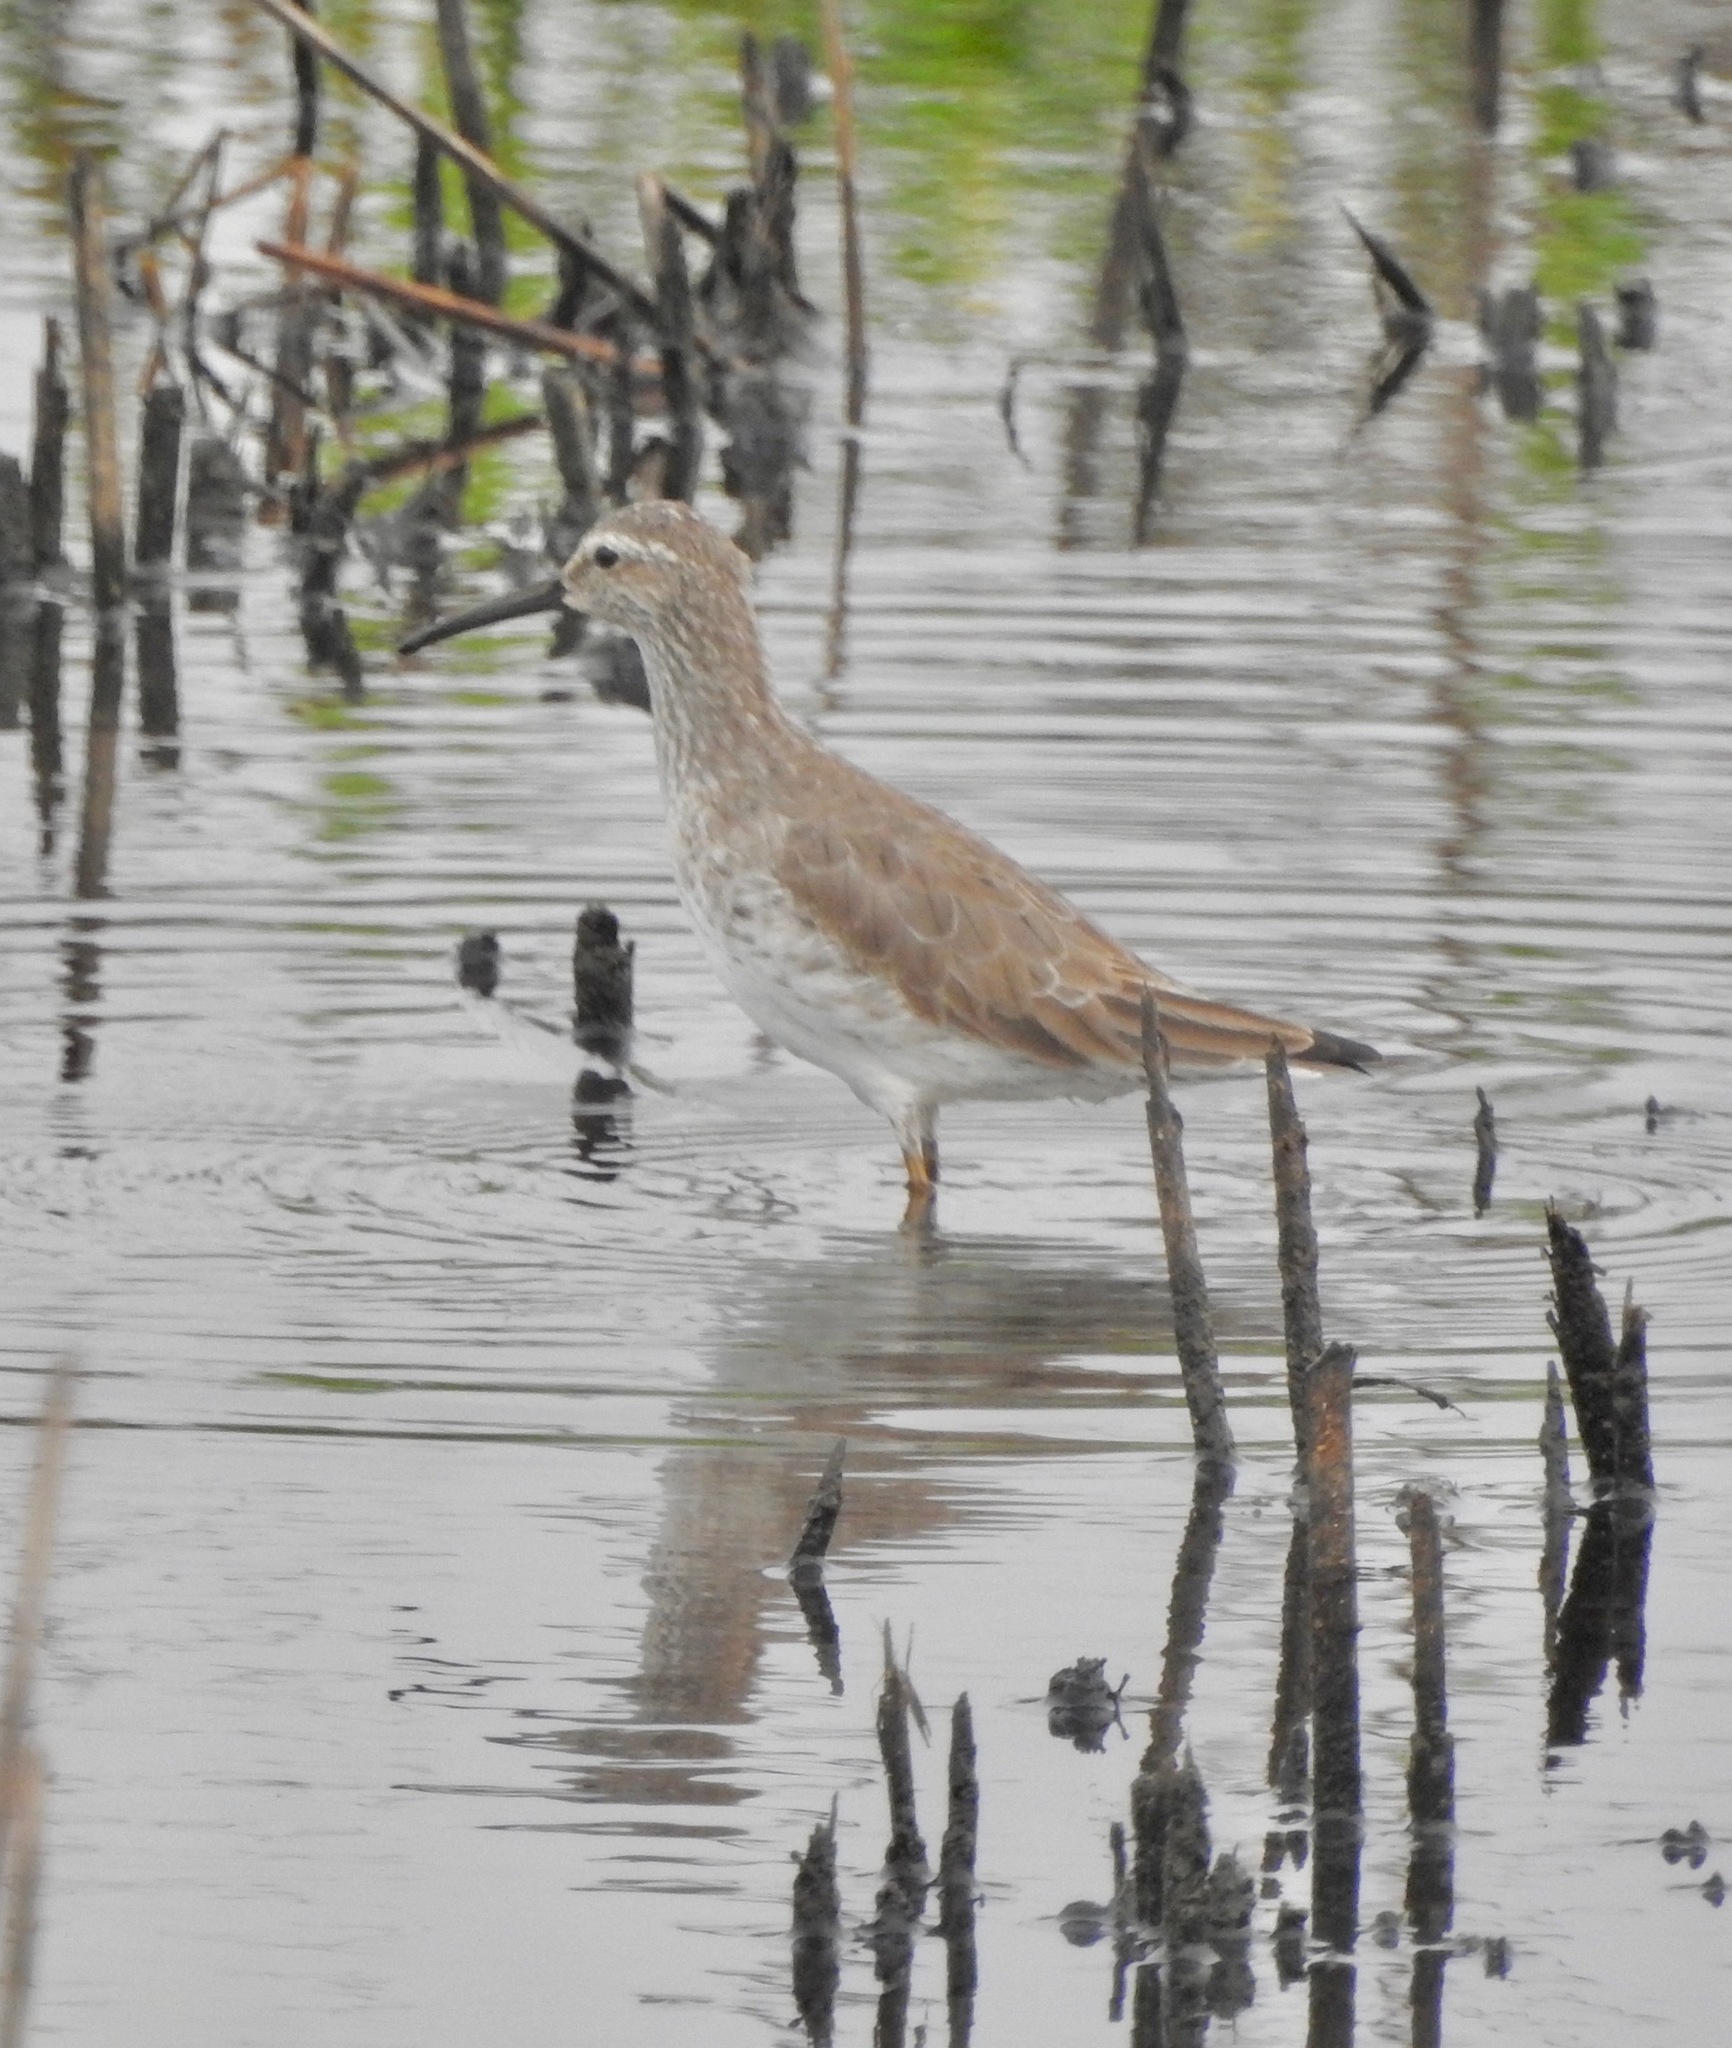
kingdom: Animalia
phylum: Chordata
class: Aves
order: Charadriiformes
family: Scolopacidae
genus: Calidris
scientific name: Calidris himantopus
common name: Stilt sandpiper
